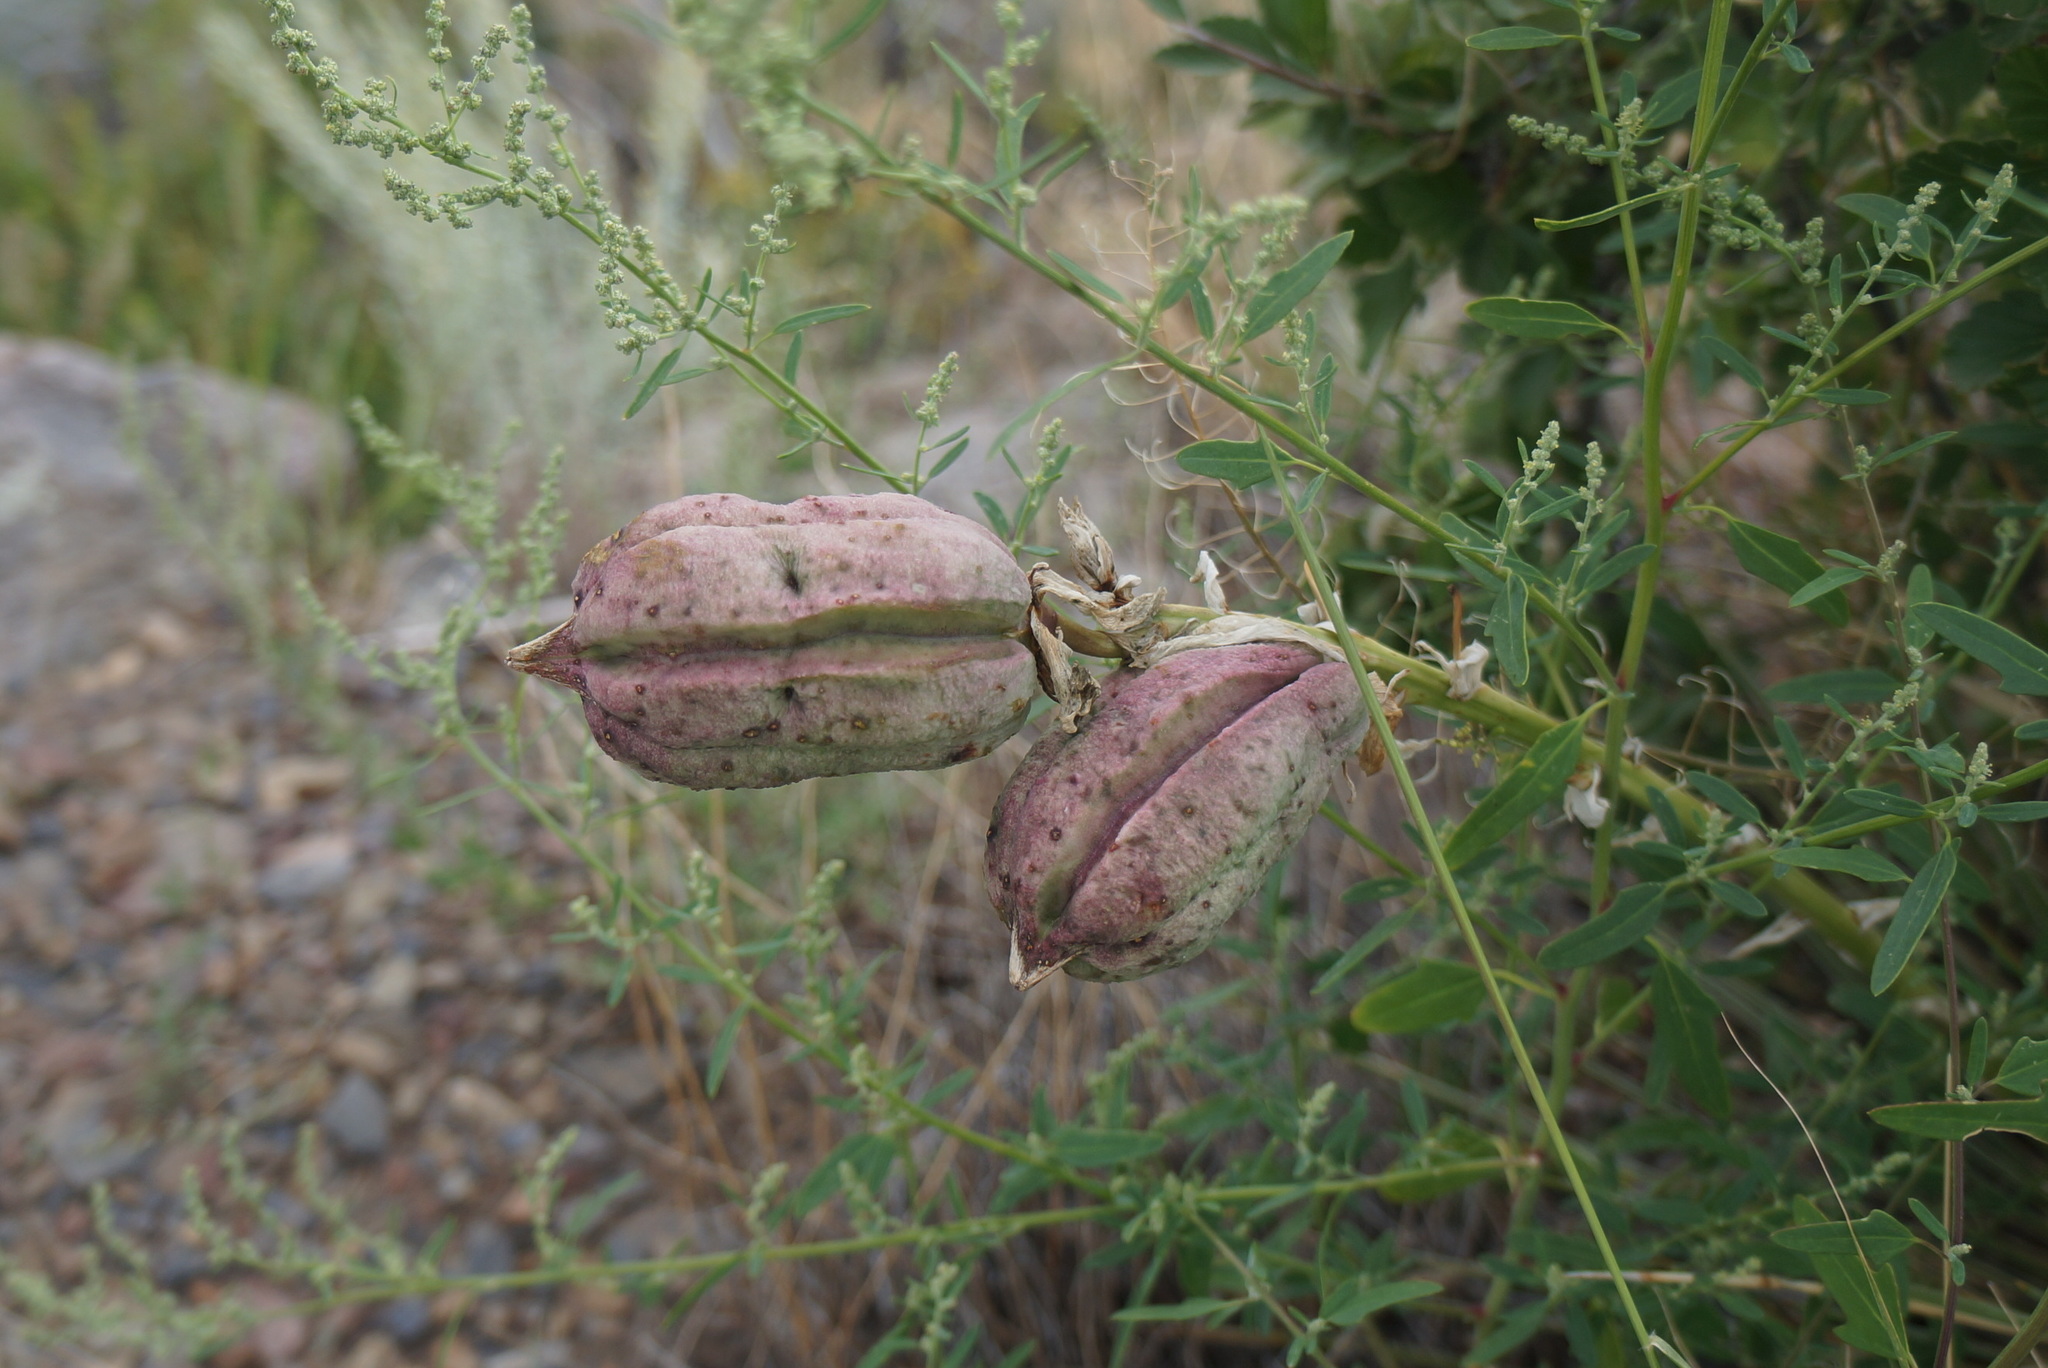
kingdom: Plantae
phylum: Tracheophyta
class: Liliopsida
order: Asparagales
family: Asparagaceae
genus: Yucca
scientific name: Yucca glauca
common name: Great plains yucca
